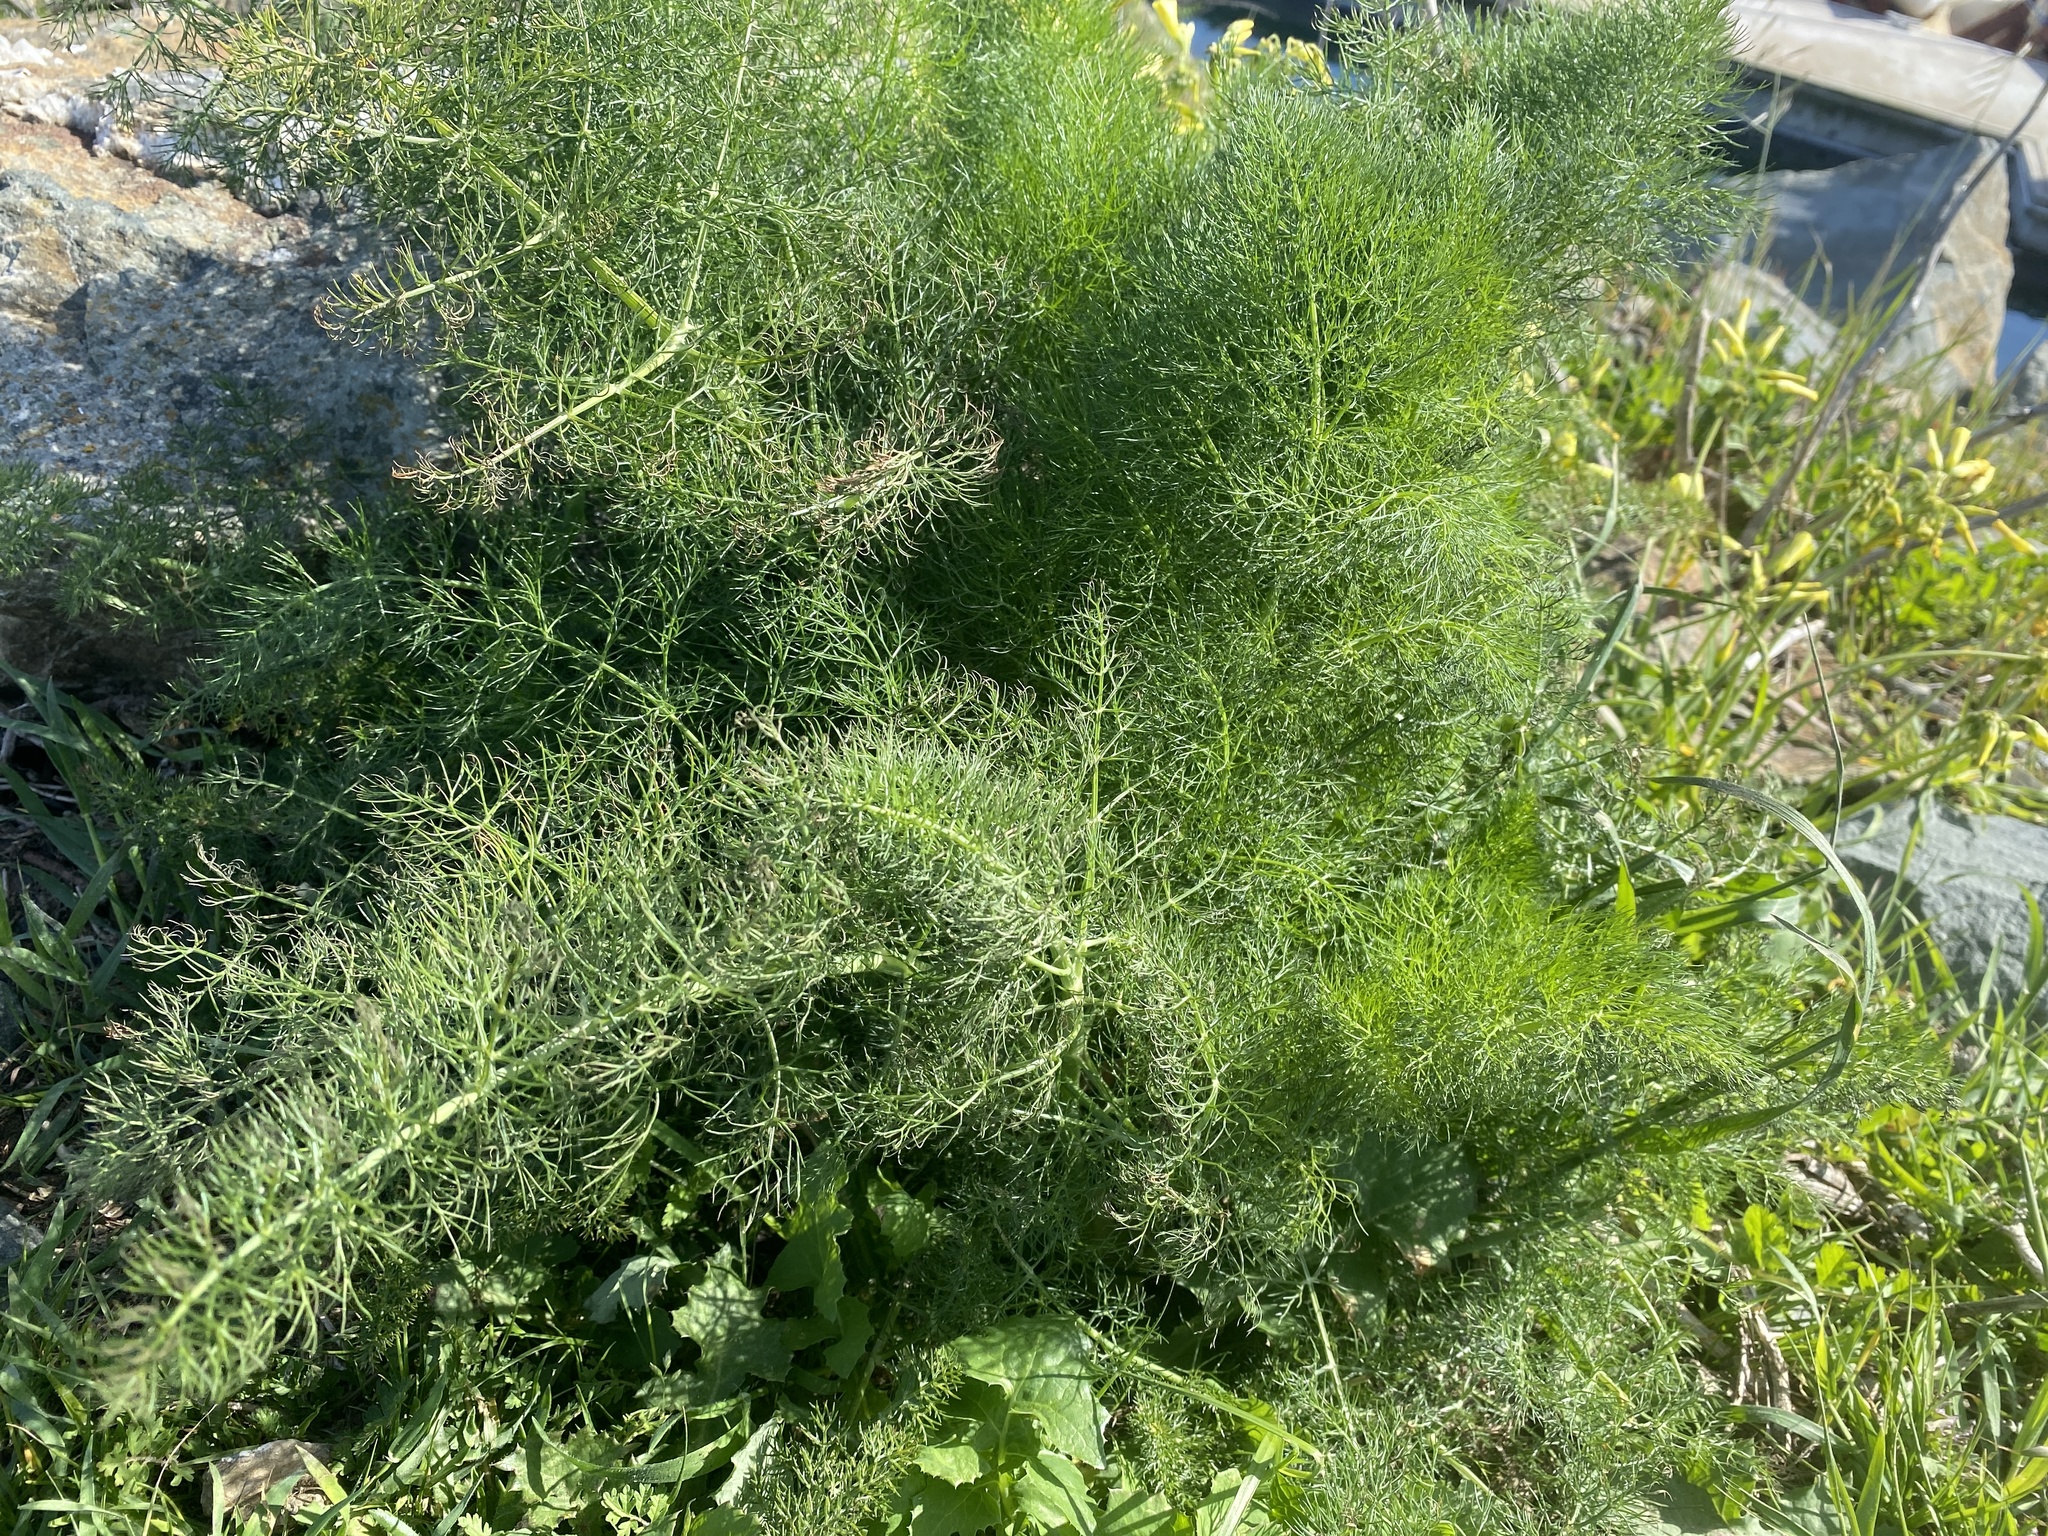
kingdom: Plantae
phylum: Tracheophyta
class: Magnoliopsida
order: Apiales
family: Apiaceae
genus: Foeniculum
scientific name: Foeniculum vulgare
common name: Fennel
